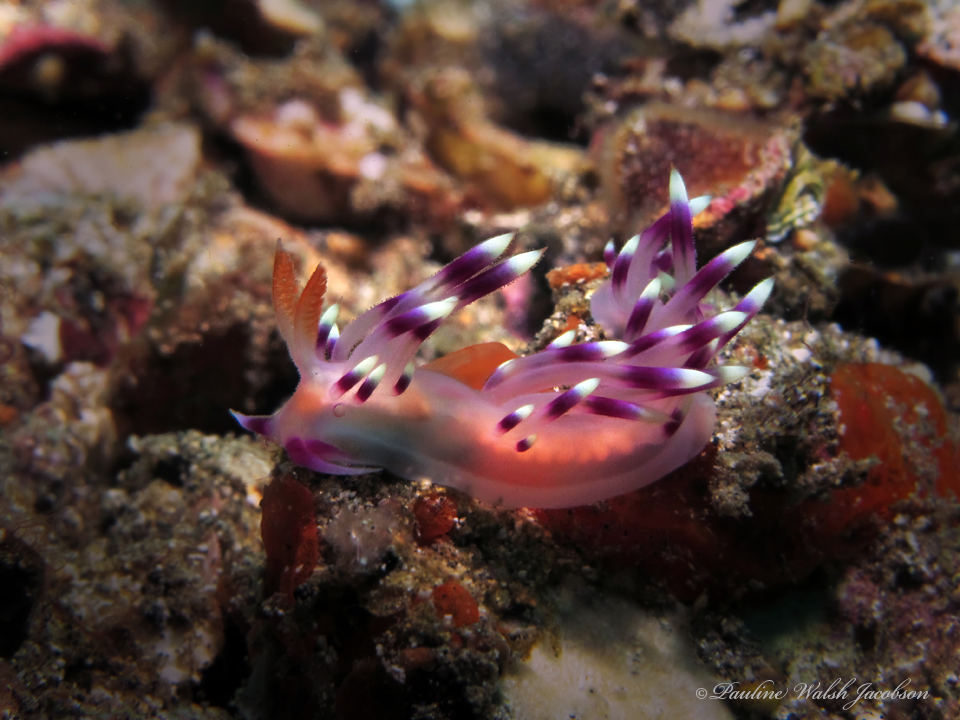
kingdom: Animalia
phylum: Mollusca
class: Gastropoda
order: Nudibranchia
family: Flabellinidae
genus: Coryphellina
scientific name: Coryphellina exoptata
